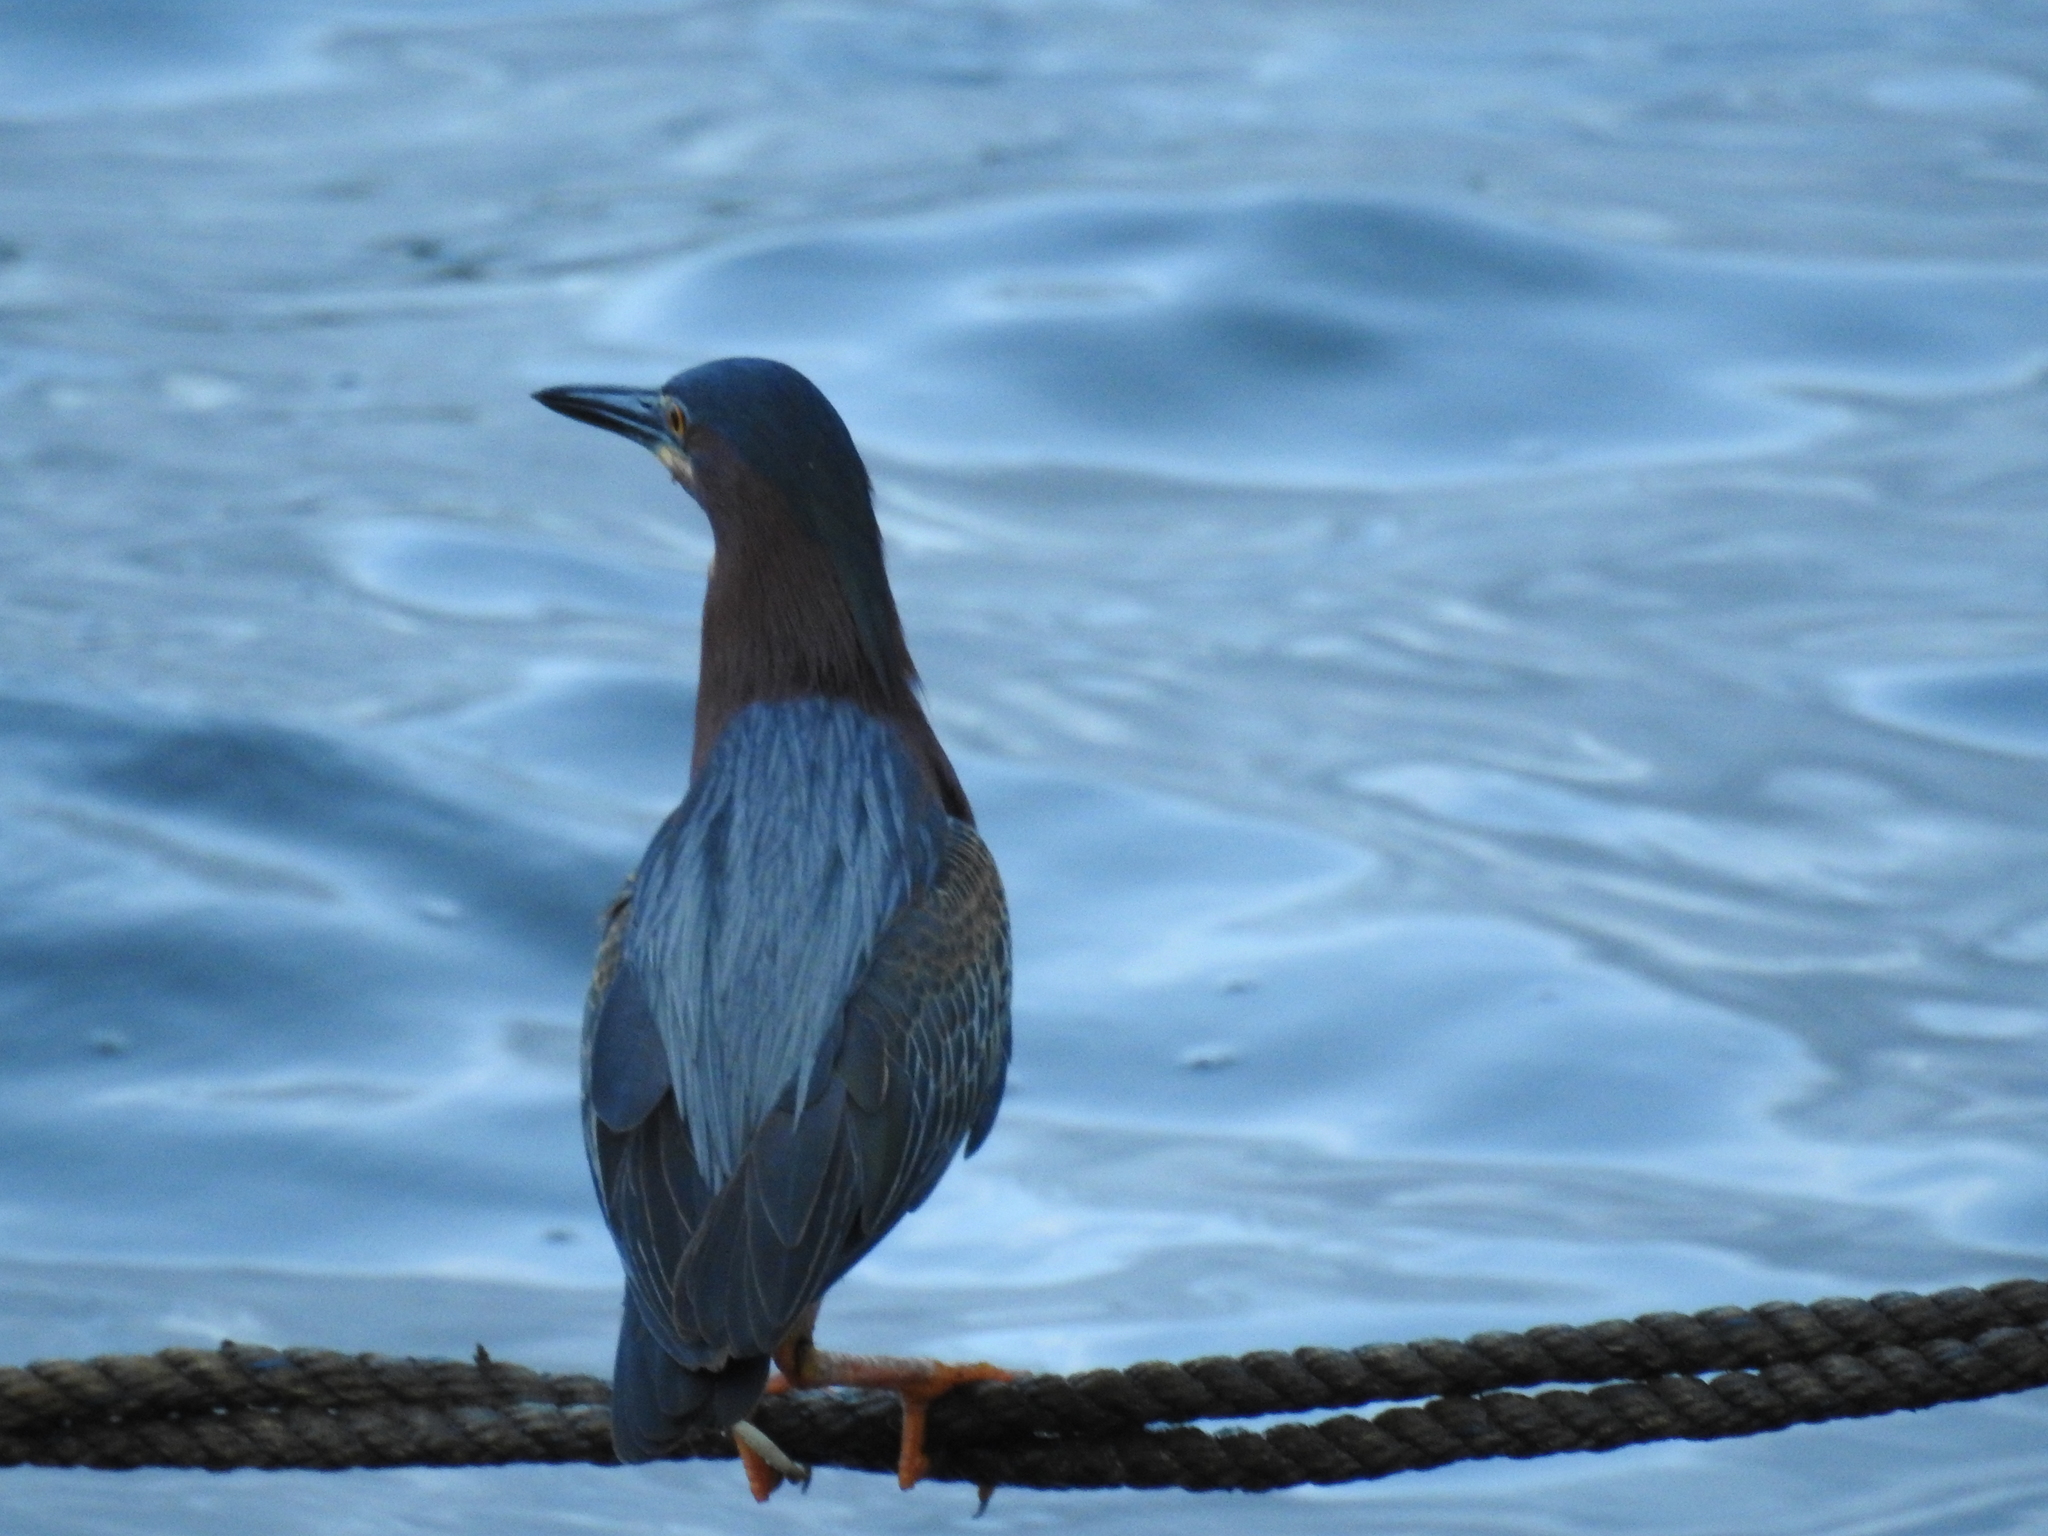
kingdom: Animalia
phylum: Chordata
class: Aves
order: Pelecaniformes
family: Ardeidae
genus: Butorides
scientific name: Butorides virescens
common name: Green heron
